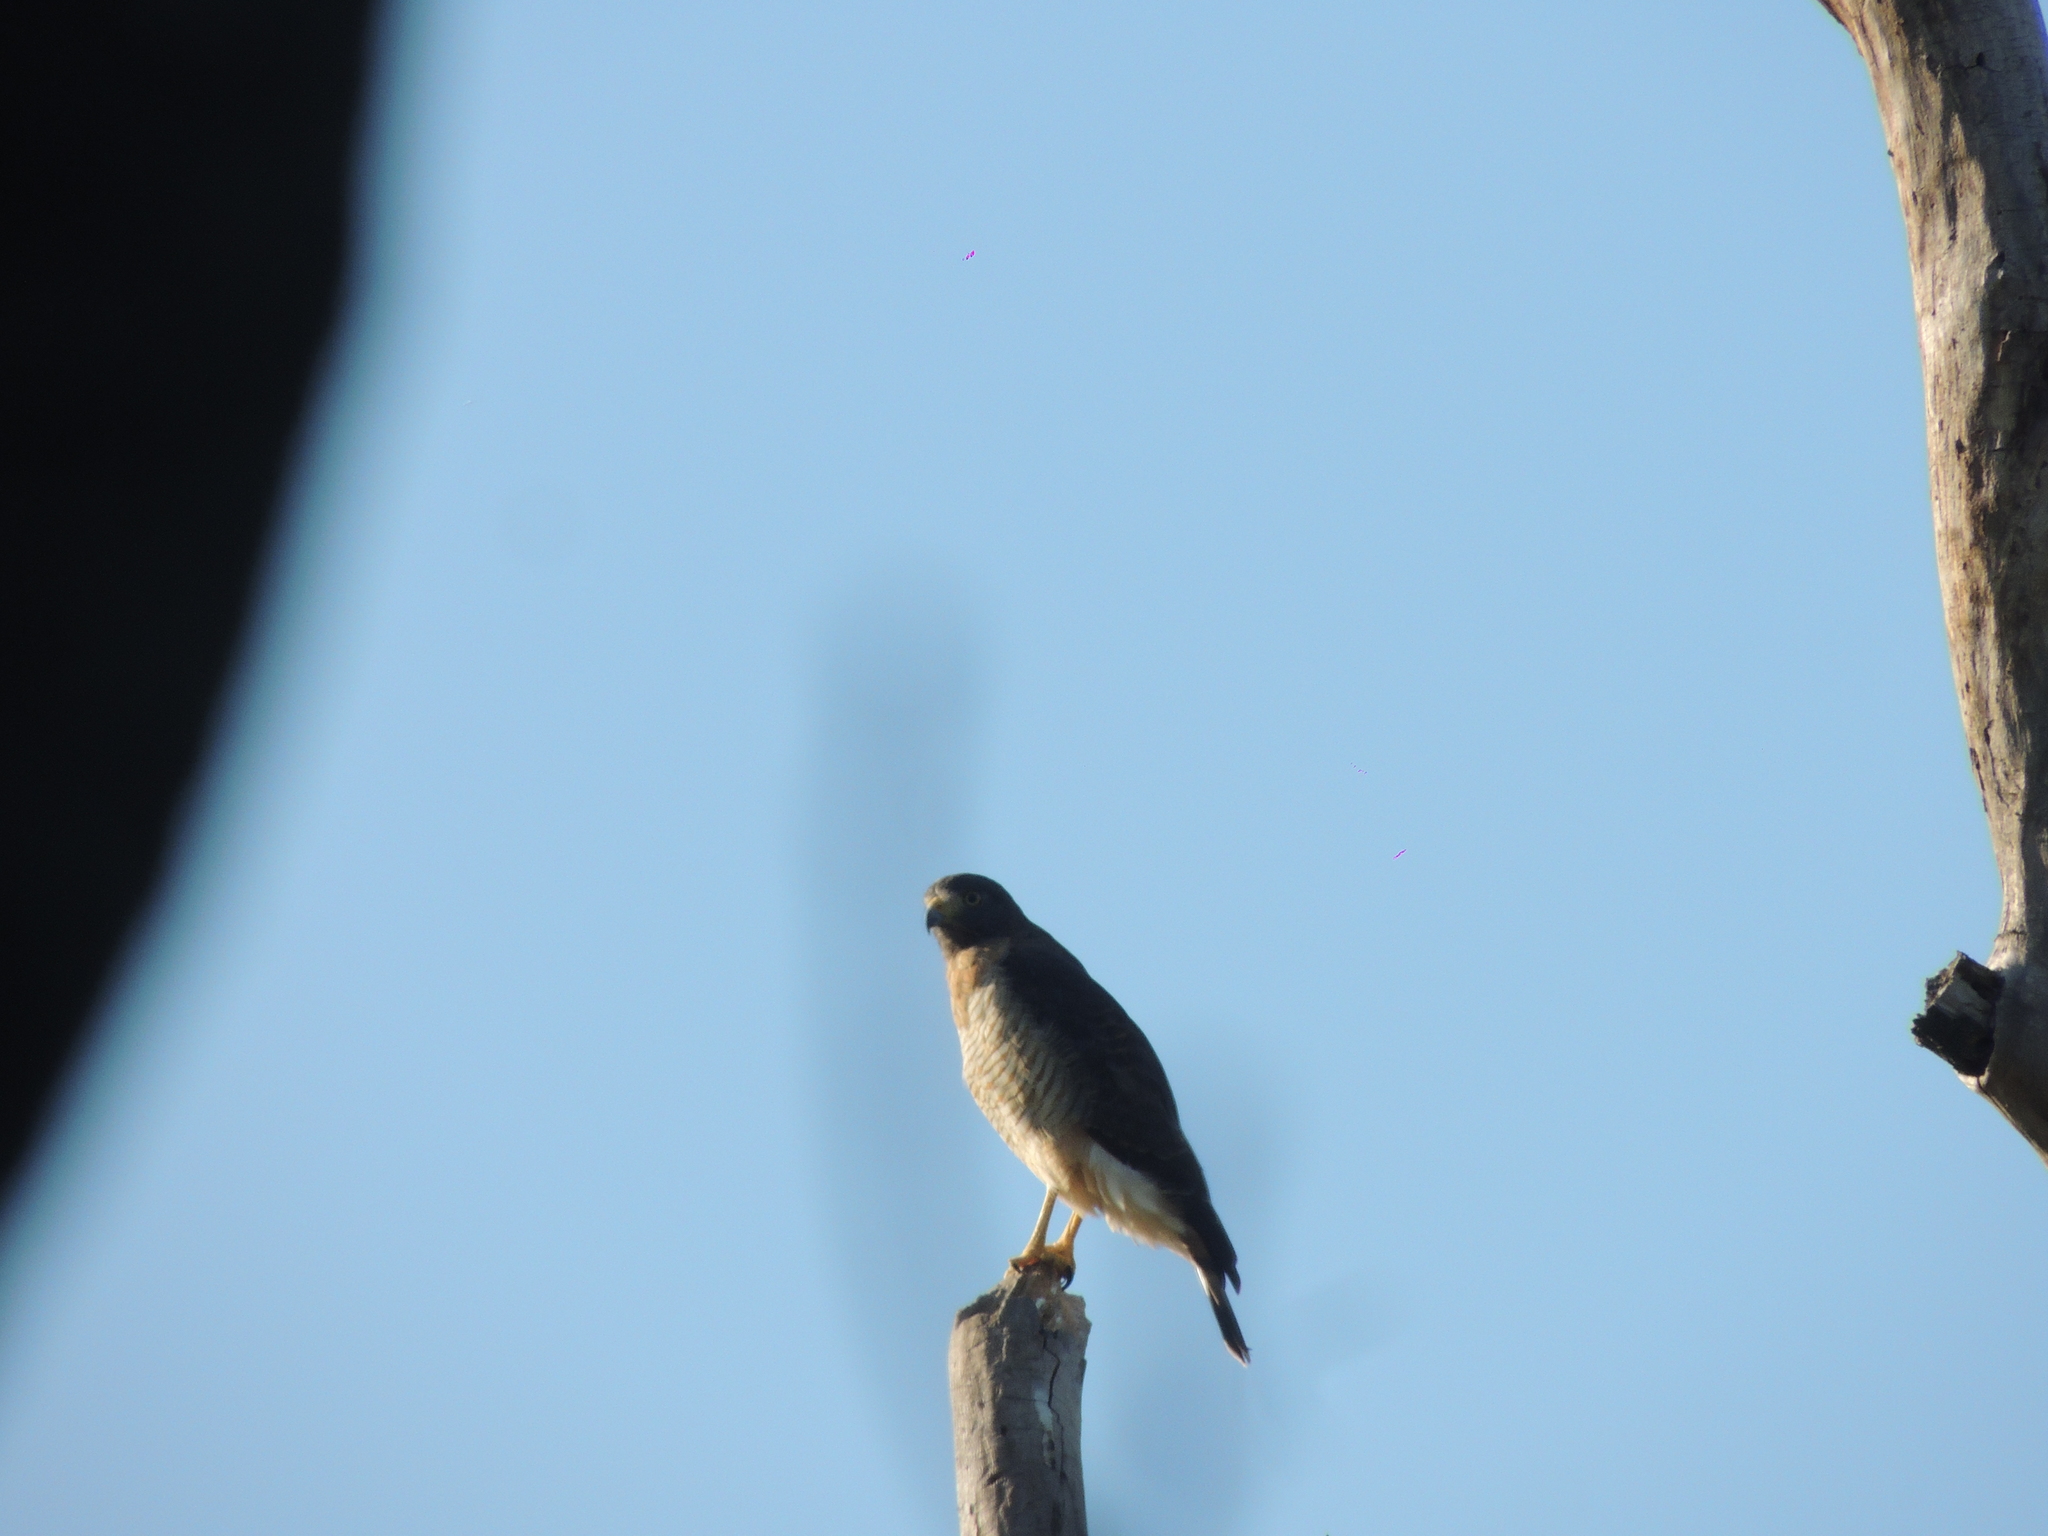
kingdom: Animalia
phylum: Chordata
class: Aves
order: Accipitriformes
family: Accipitridae
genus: Rupornis
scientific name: Rupornis magnirostris
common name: Roadside hawk
